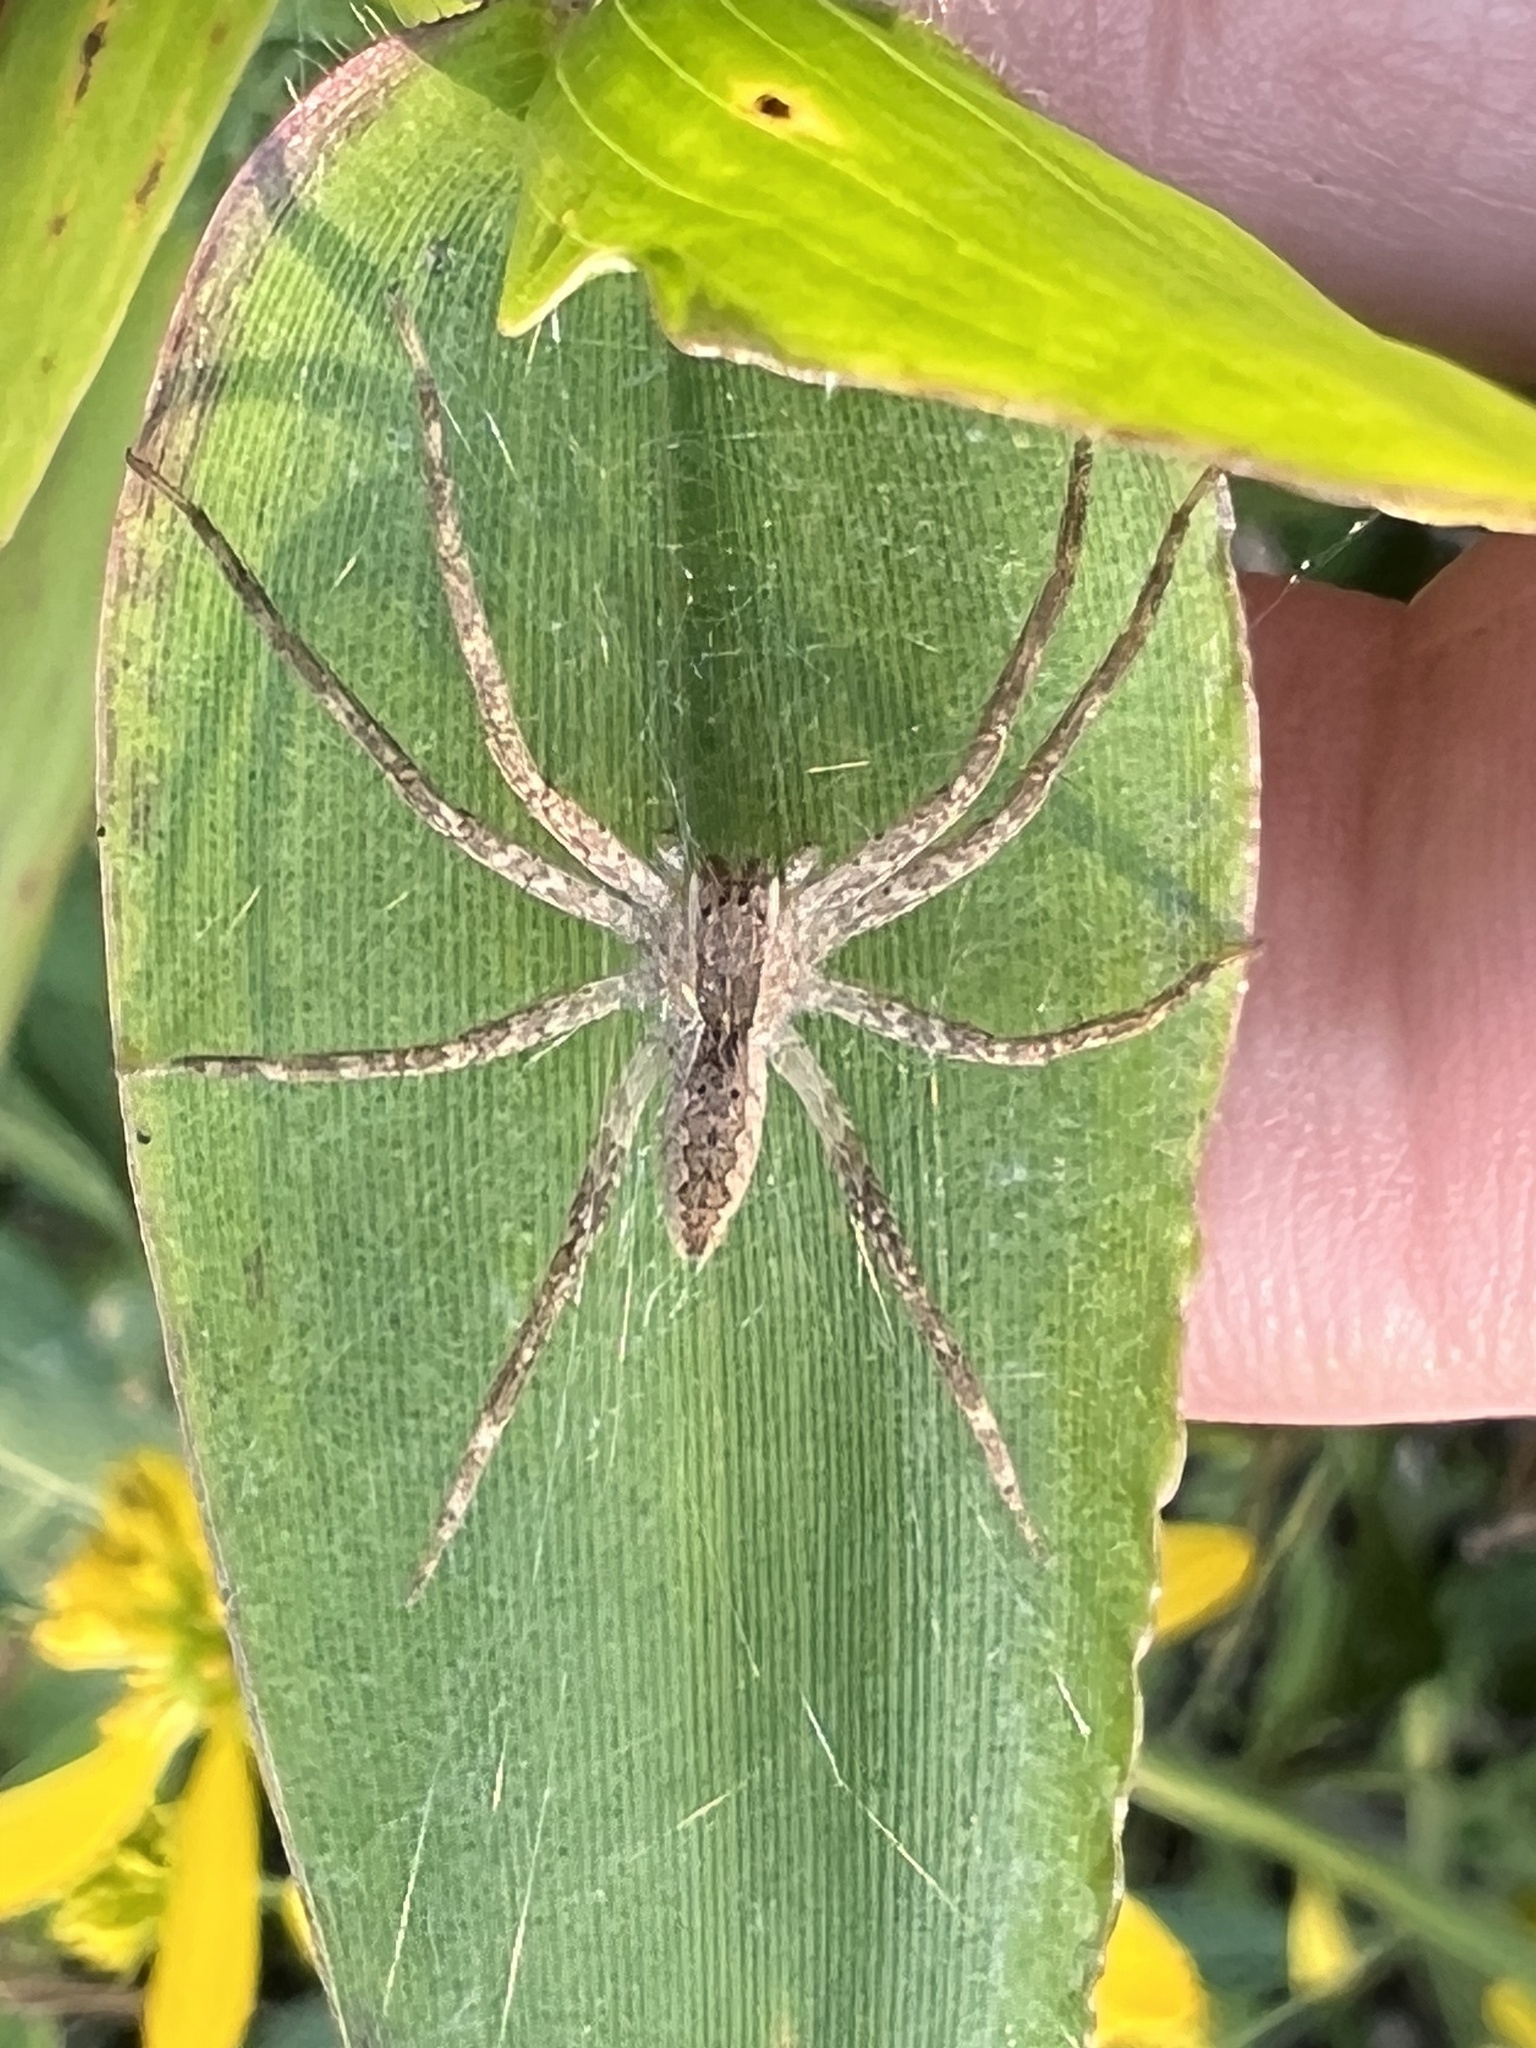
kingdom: Animalia
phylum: Arthropoda
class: Arachnida
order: Araneae
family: Pisauridae
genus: Pisaurina
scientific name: Pisaurina mira
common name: American nursery web spider
